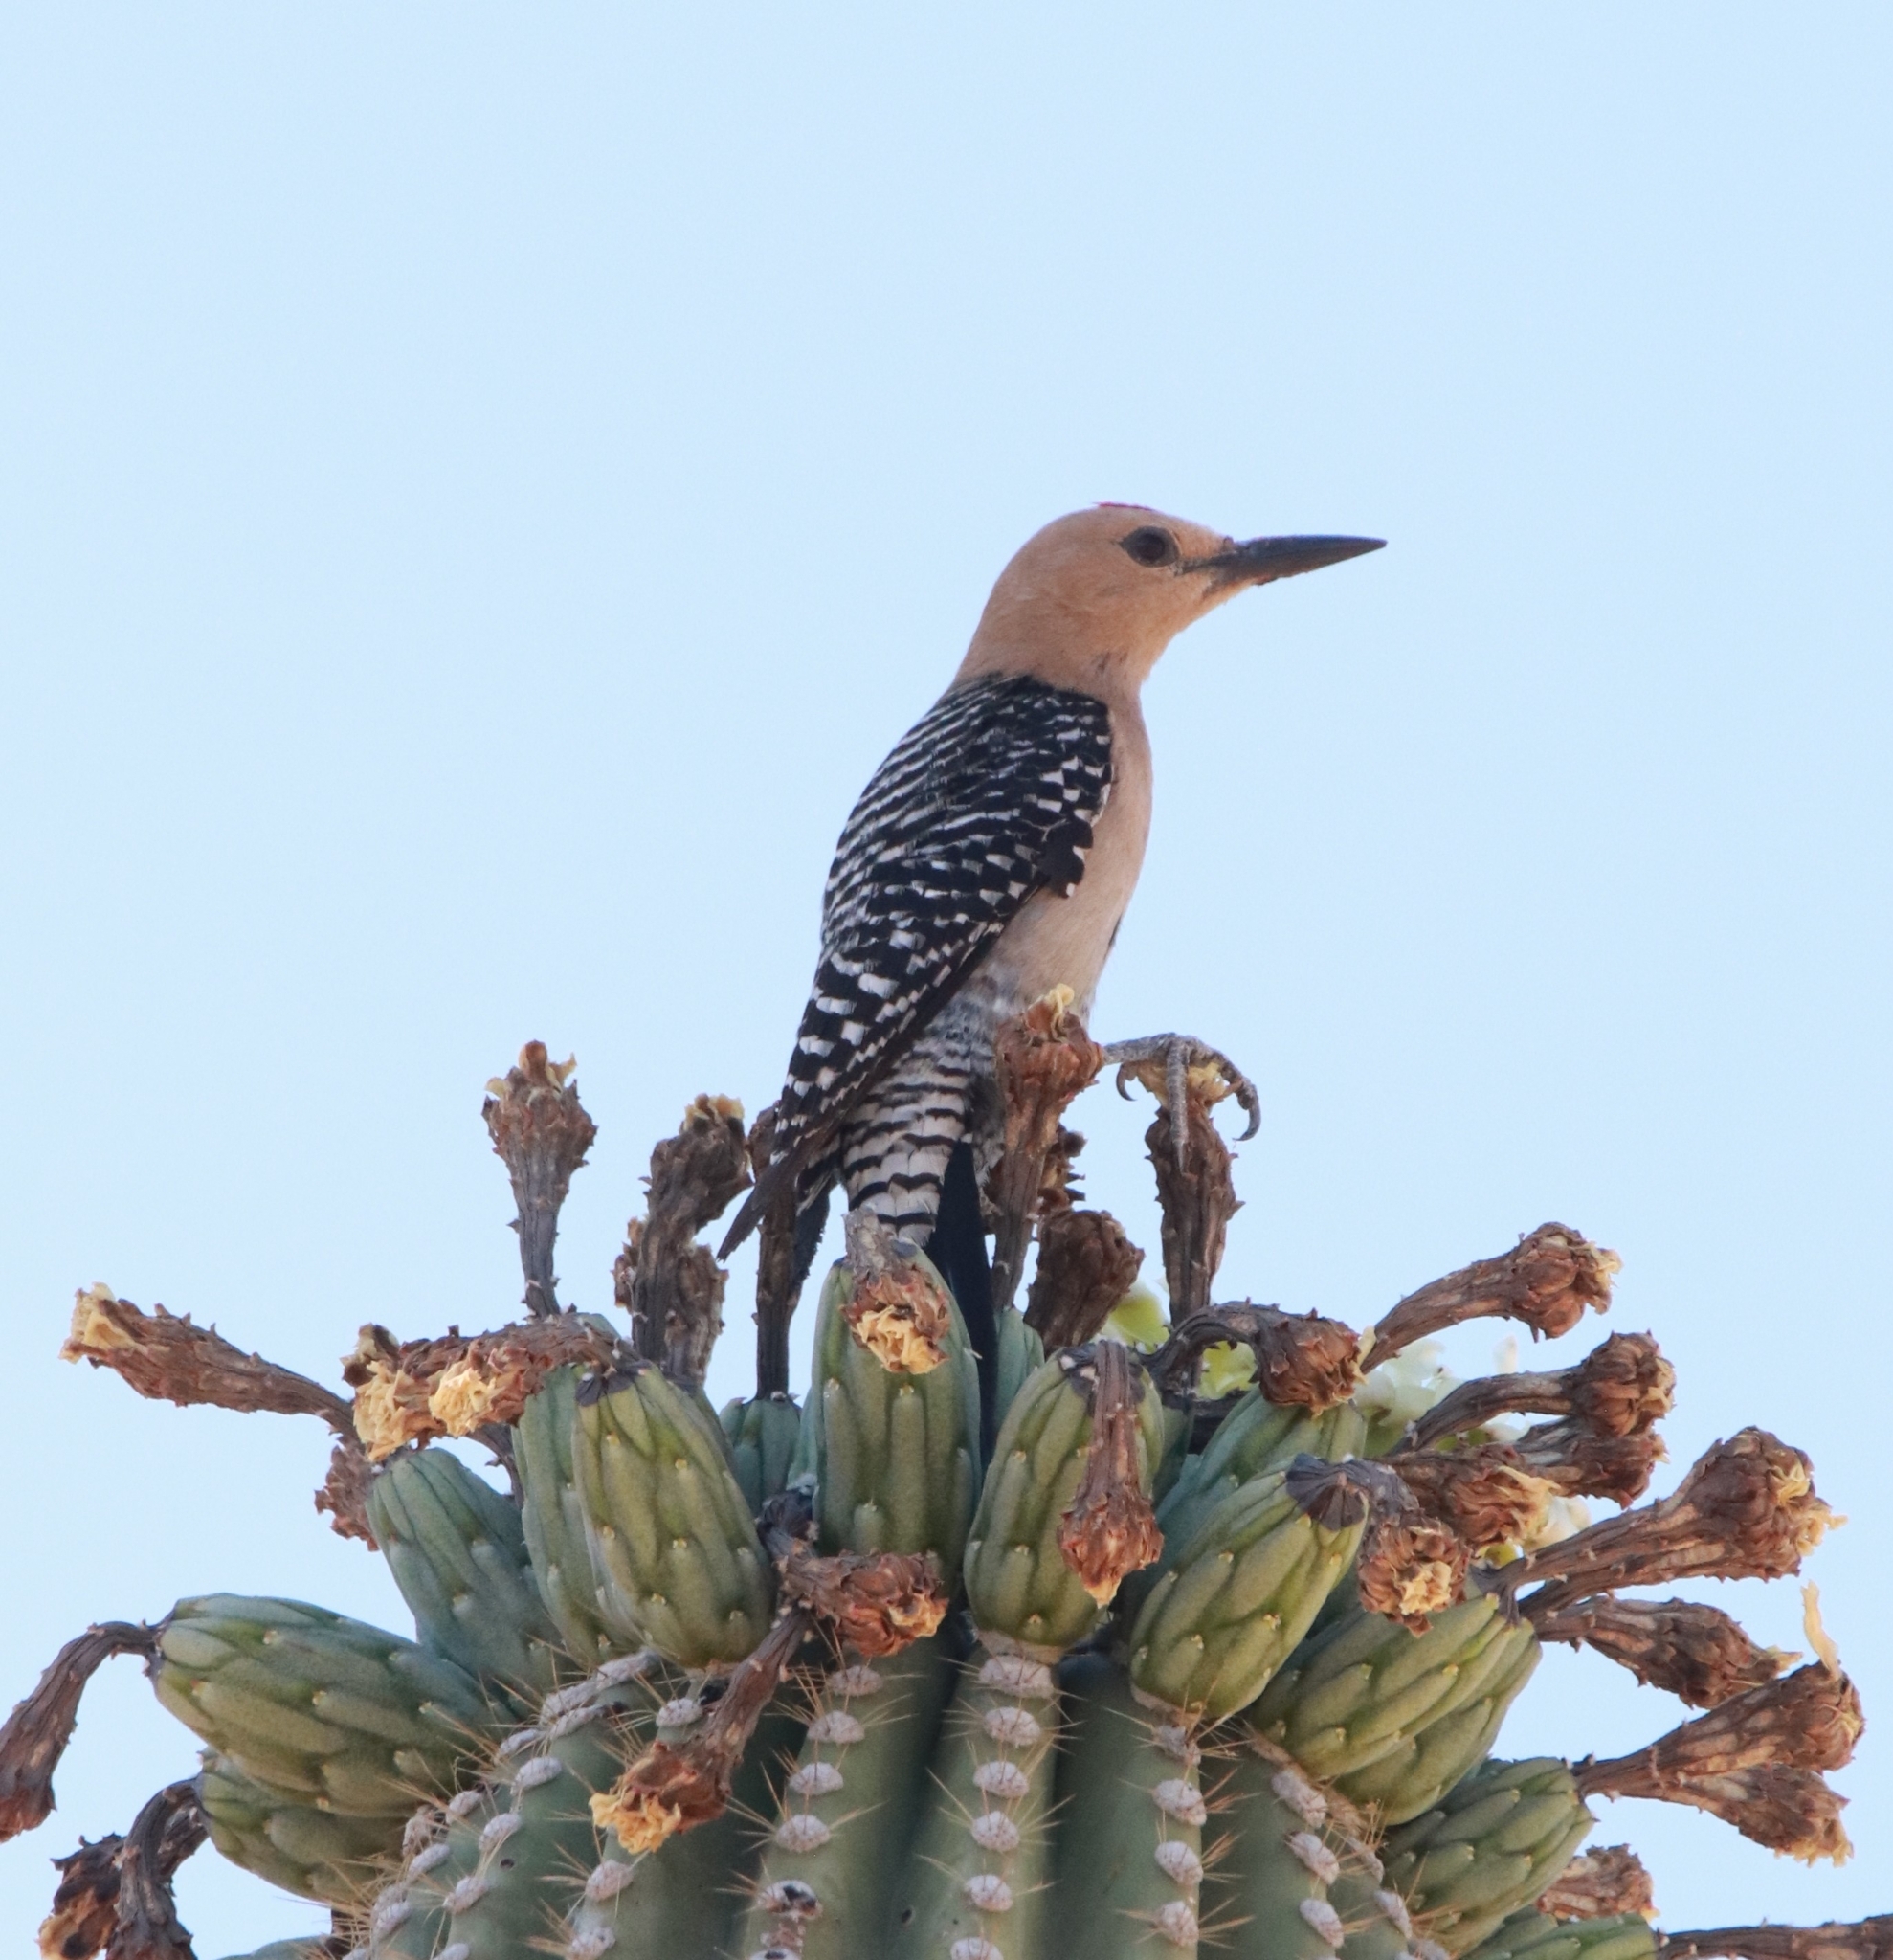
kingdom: Animalia
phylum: Chordata
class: Aves
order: Piciformes
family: Picidae
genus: Melanerpes
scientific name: Melanerpes uropygialis
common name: Gila woodpecker
